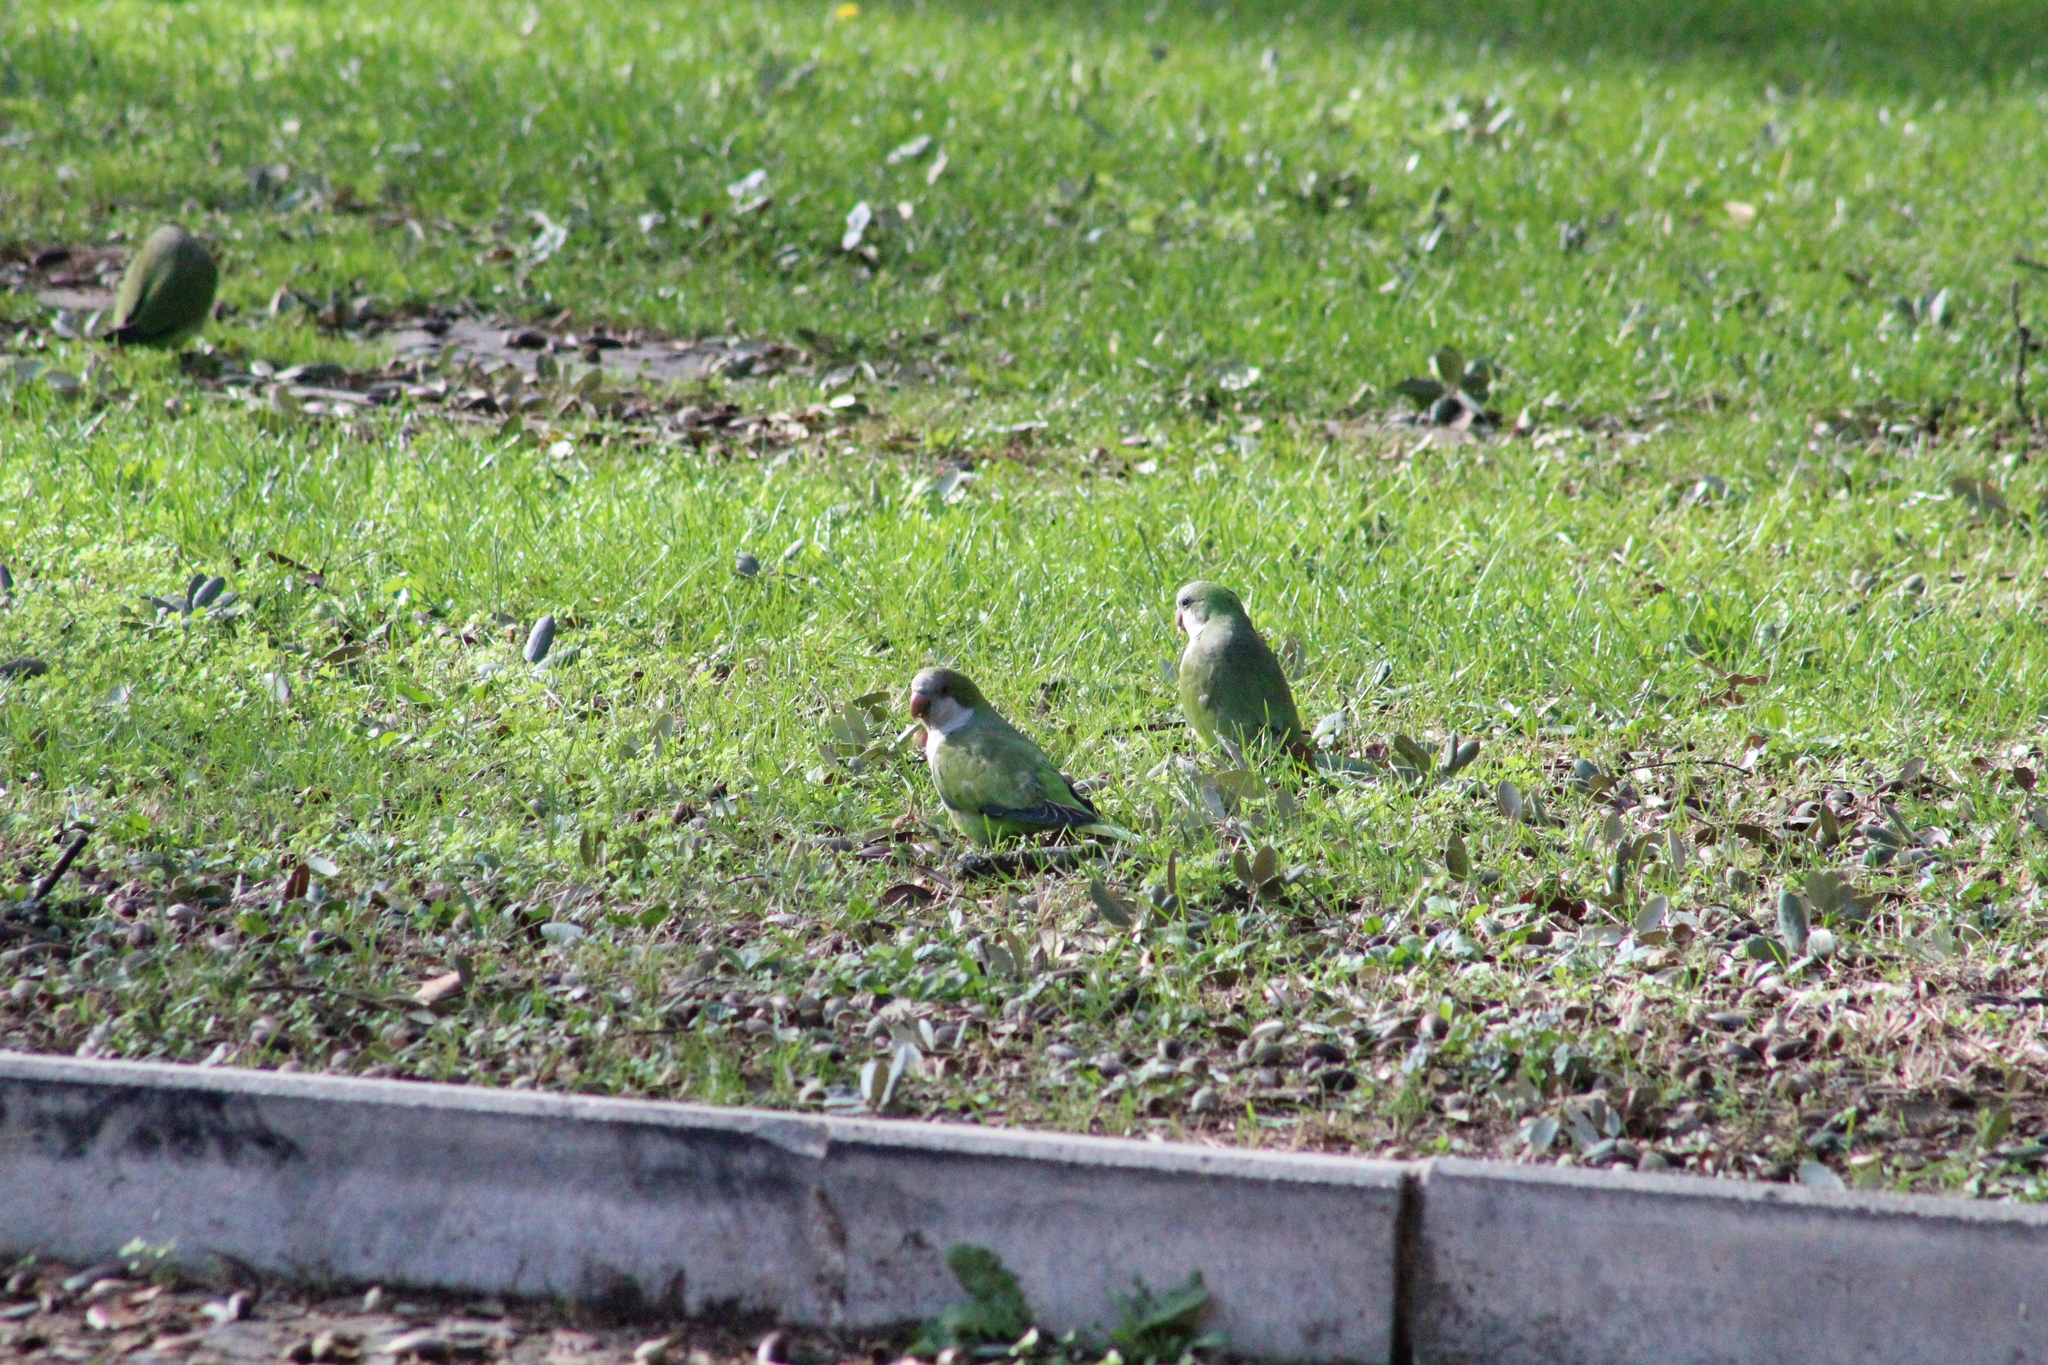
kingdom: Animalia
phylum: Chordata
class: Aves
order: Psittaciformes
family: Psittacidae
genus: Myiopsitta
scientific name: Myiopsitta monachus
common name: Monk parakeet
